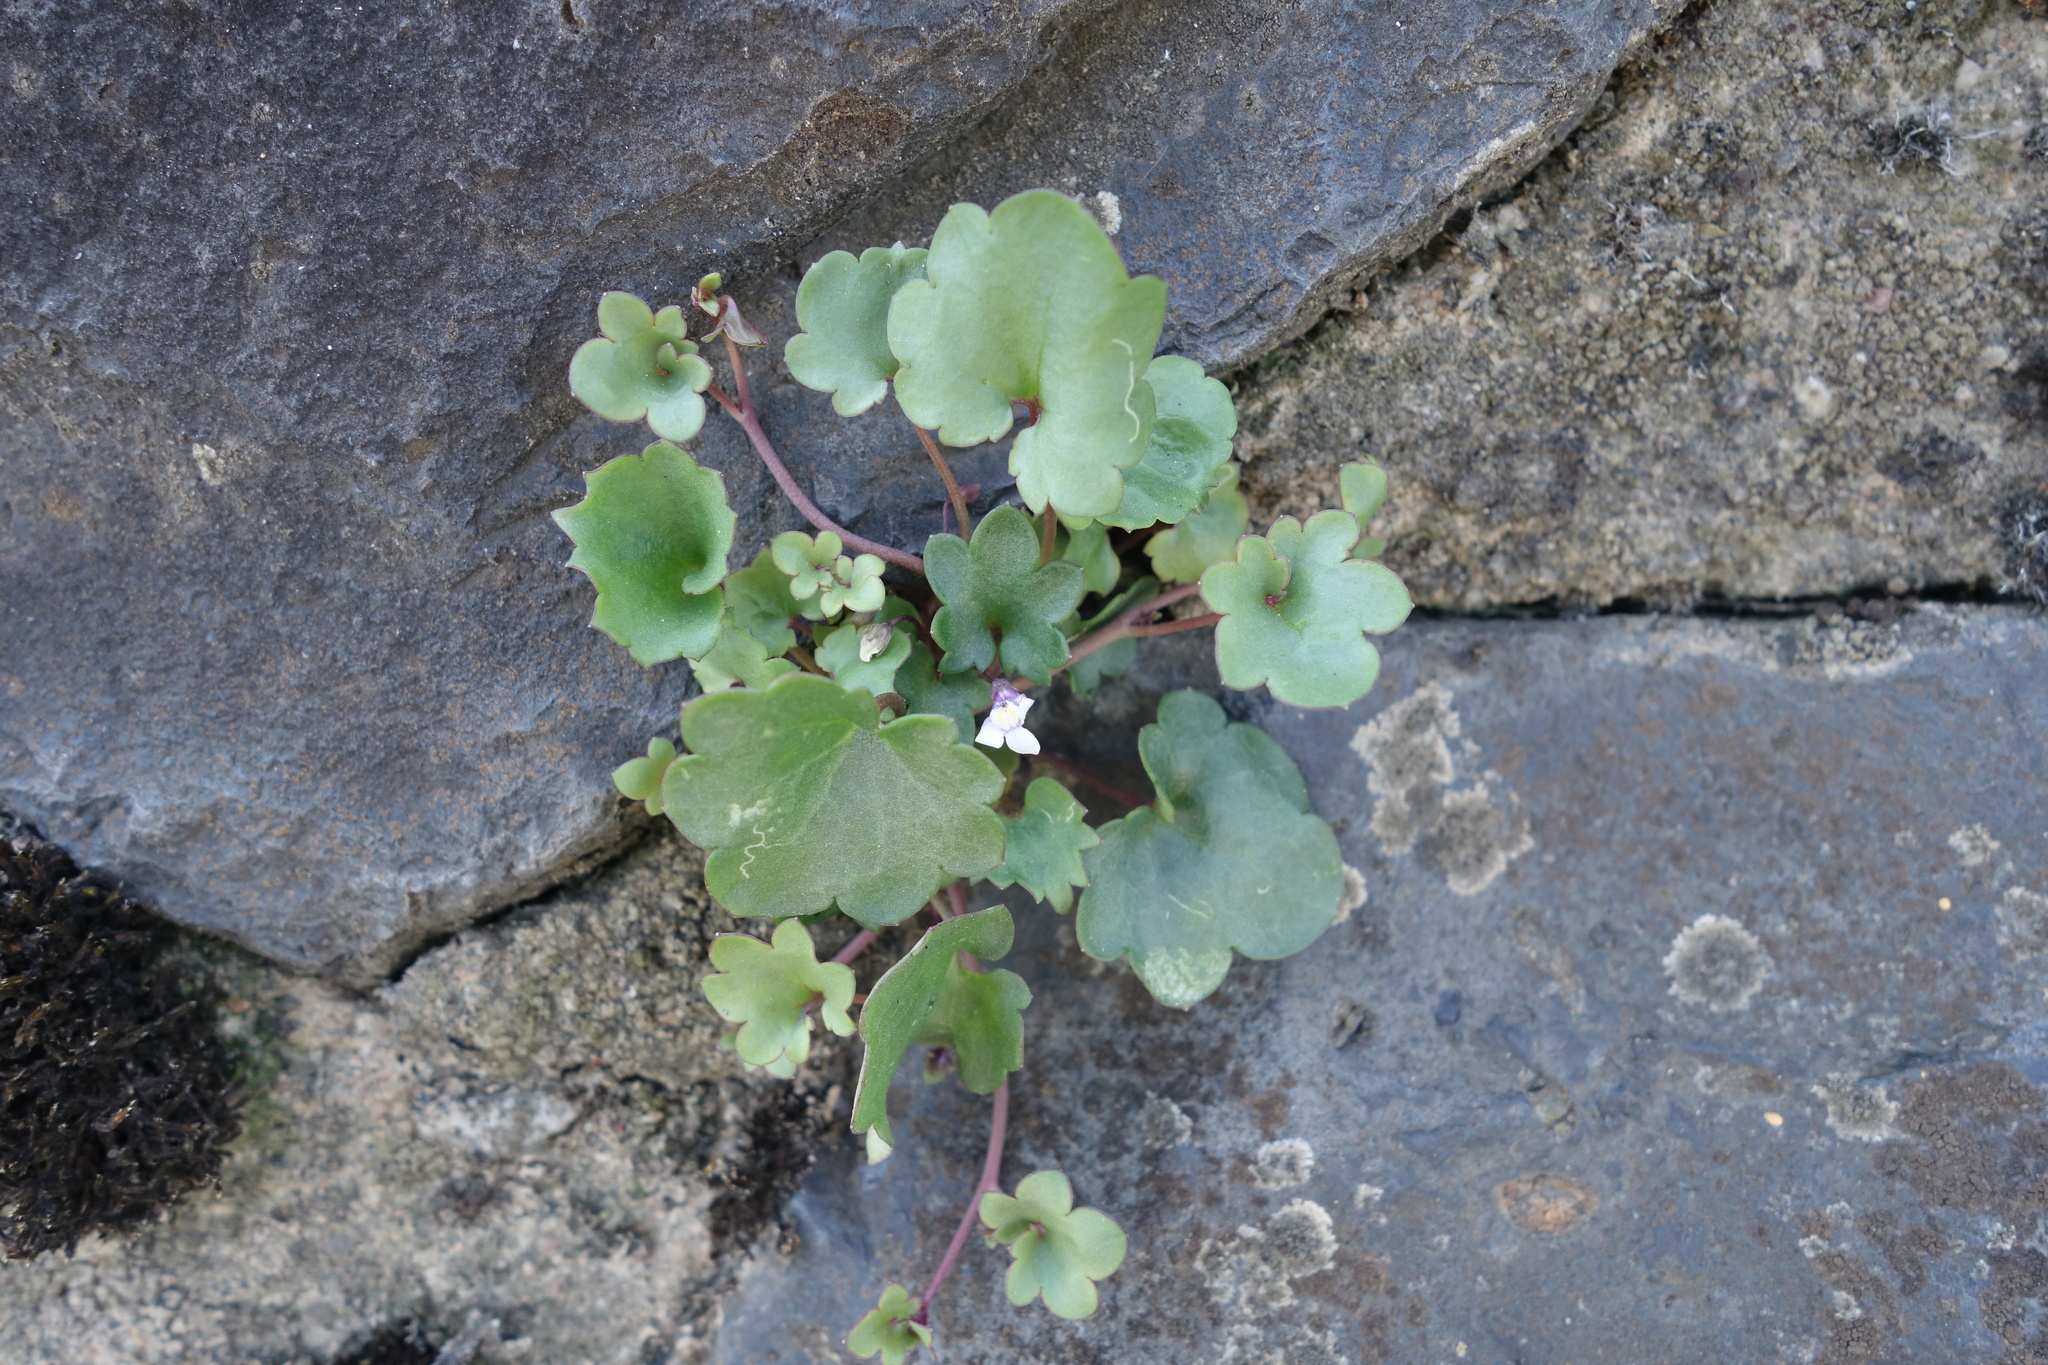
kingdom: Plantae
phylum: Tracheophyta
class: Magnoliopsida
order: Lamiales
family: Plantaginaceae
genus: Cymbalaria
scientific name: Cymbalaria muralis
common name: Ivy-leaved toadflax
